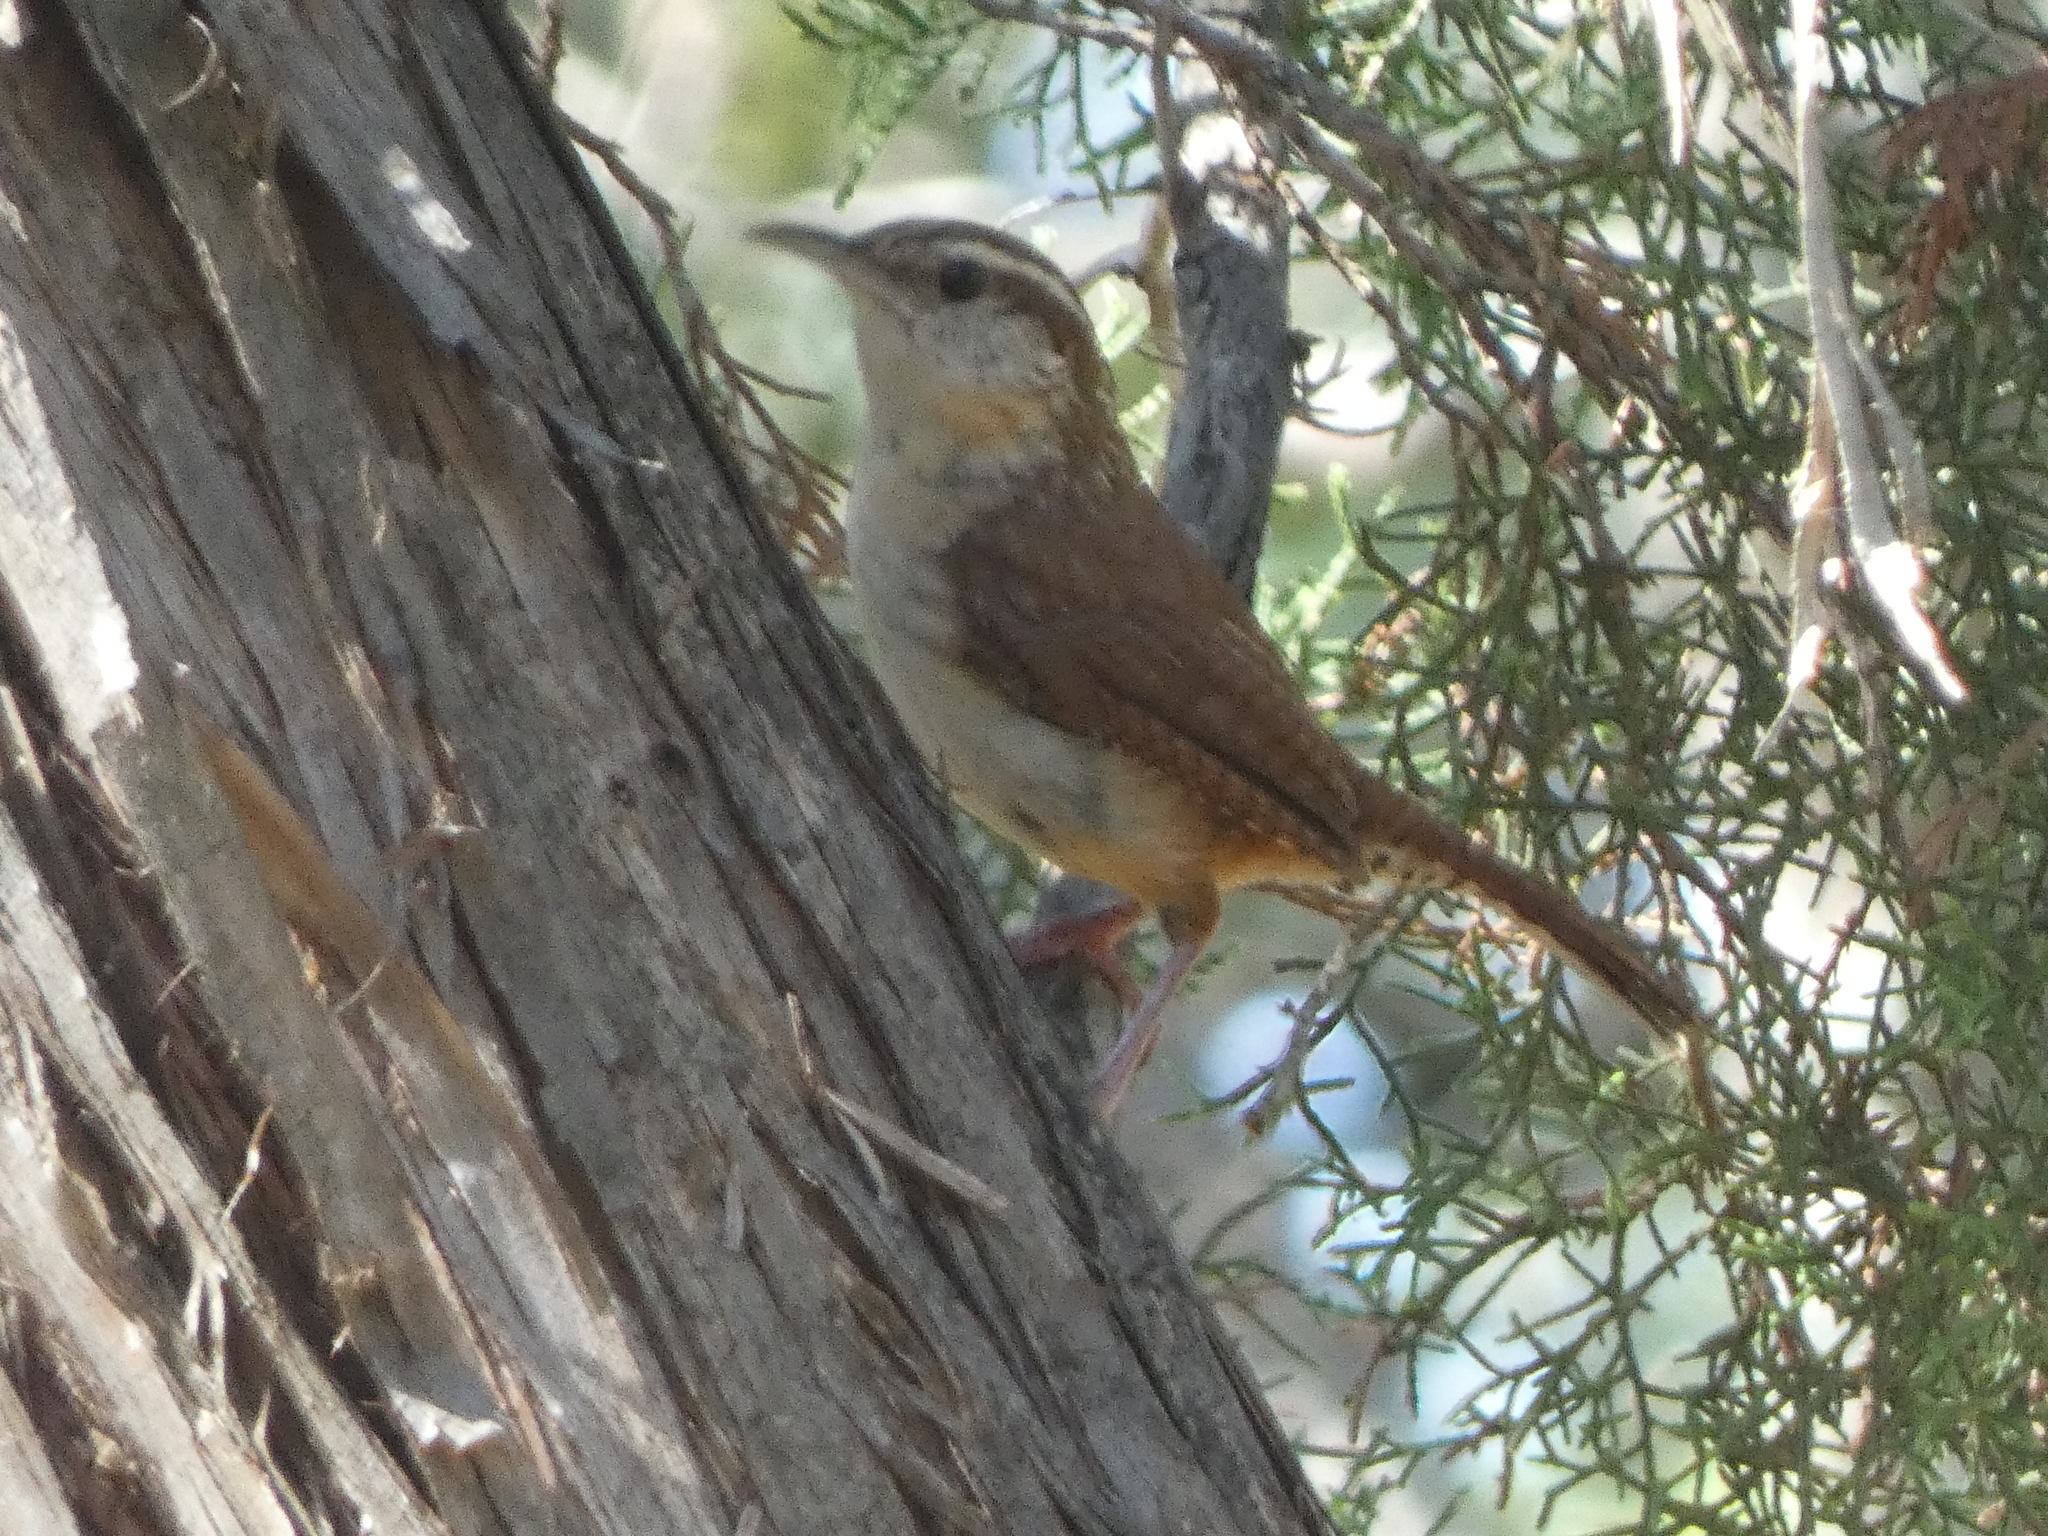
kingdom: Animalia
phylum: Chordata
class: Aves
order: Passeriformes
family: Troglodytidae
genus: Thryothorus
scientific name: Thryothorus ludovicianus
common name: Carolina wren
